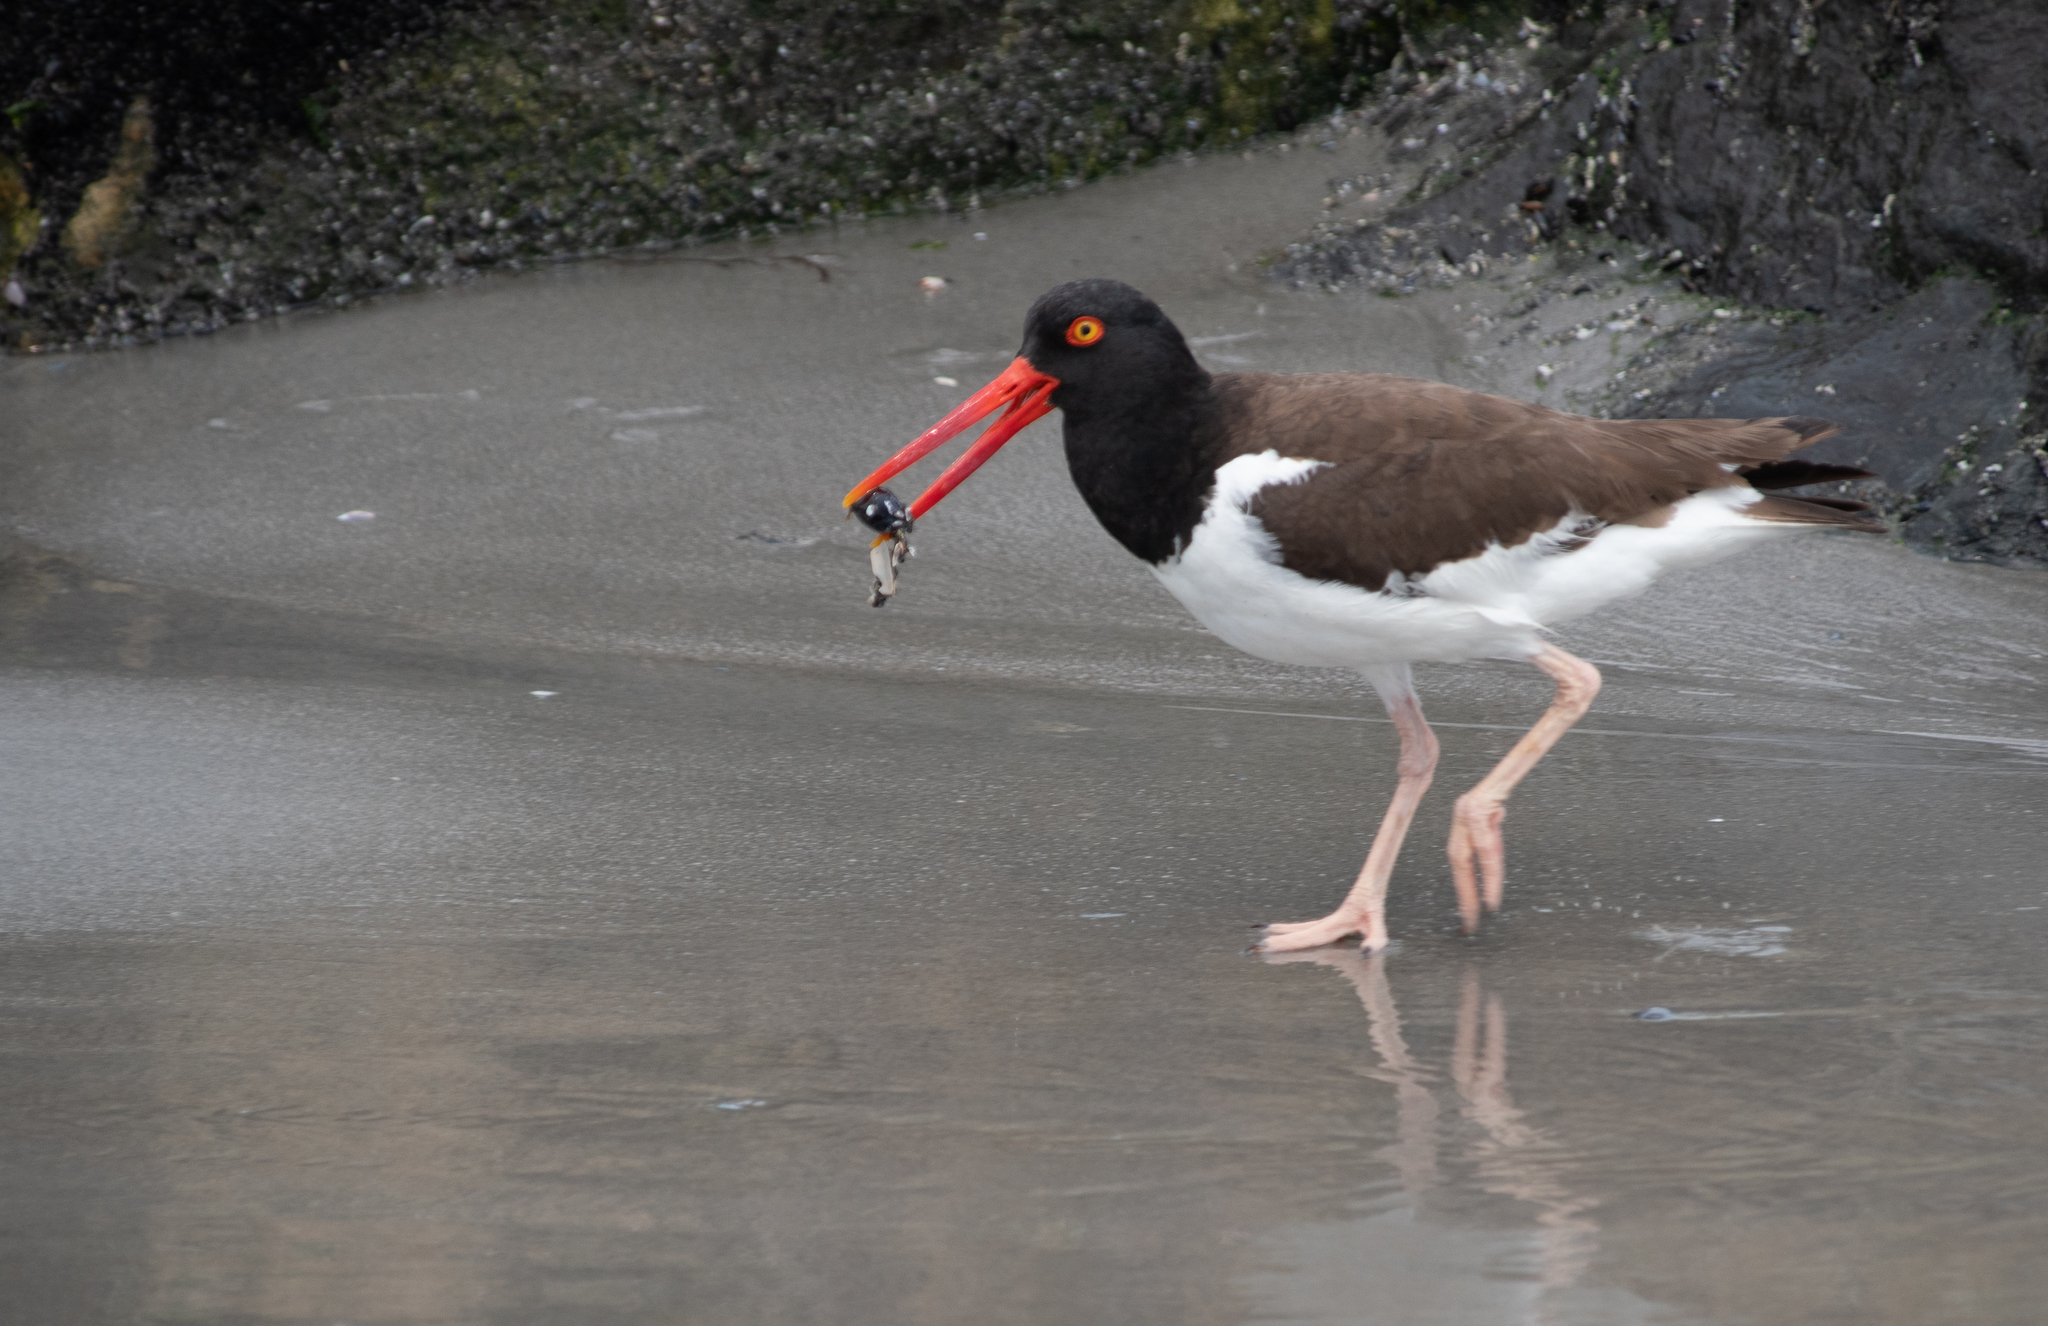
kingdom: Animalia
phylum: Chordata
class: Aves
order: Charadriiformes
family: Haematopodidae
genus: Haematopus
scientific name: Haematopus palliatus
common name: American oystercatcher
